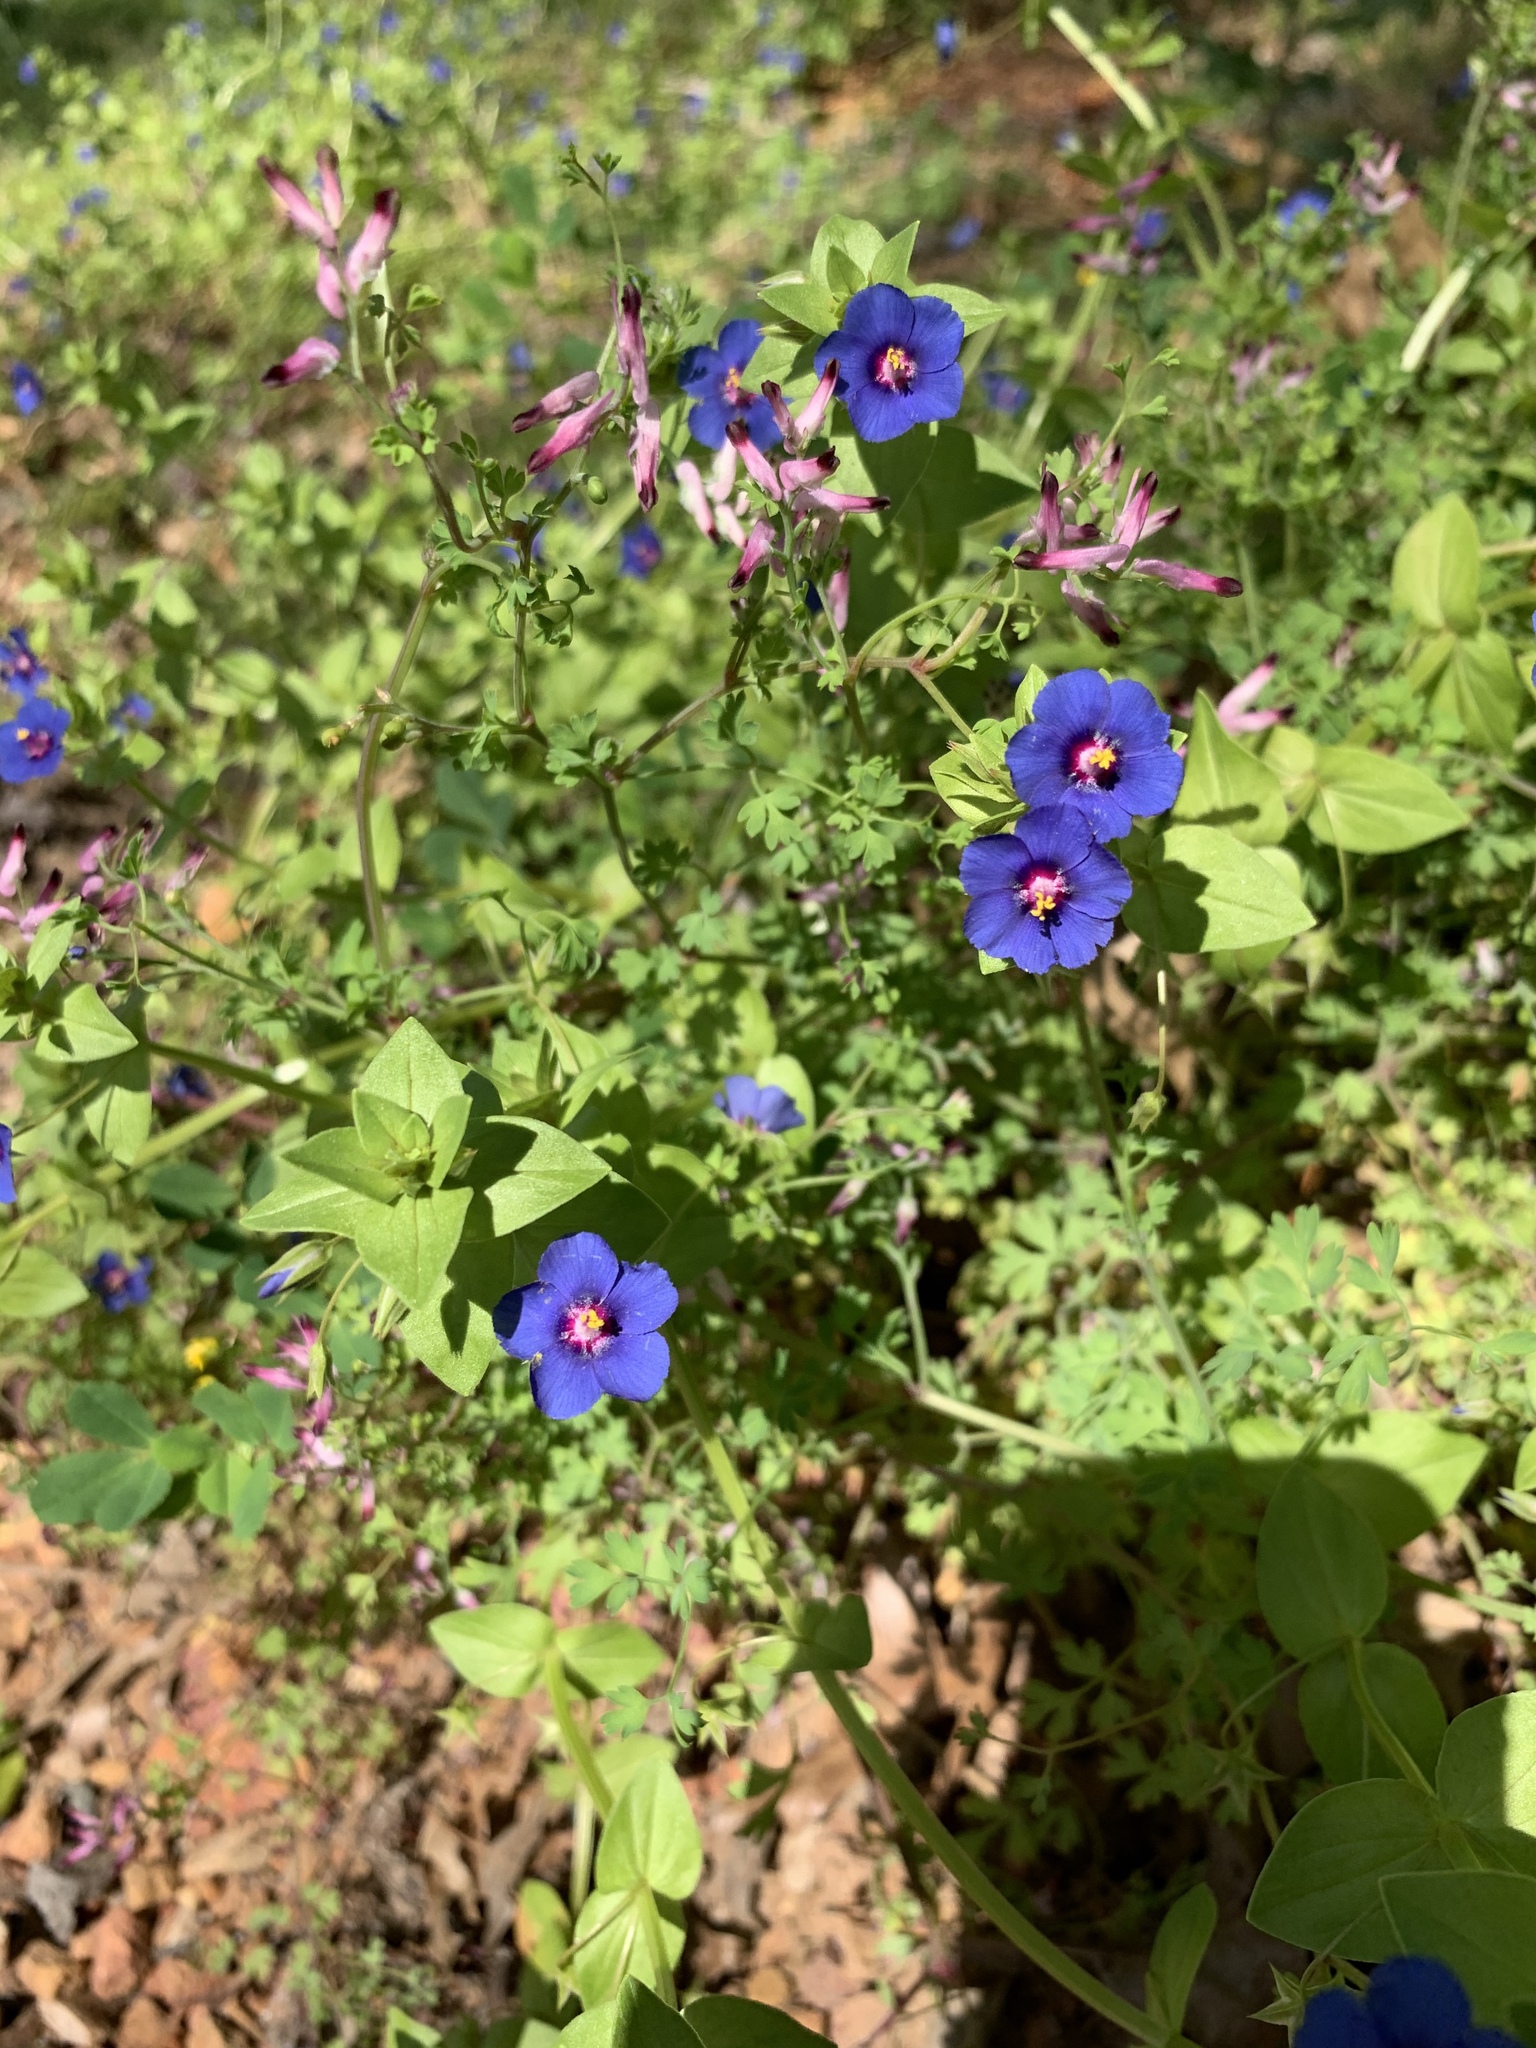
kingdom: Plantae
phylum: Tracheophyta
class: Magnoliopsida
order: Ericales
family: Primulaceae
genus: Lysimachia
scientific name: Lysimachia loeflingii
